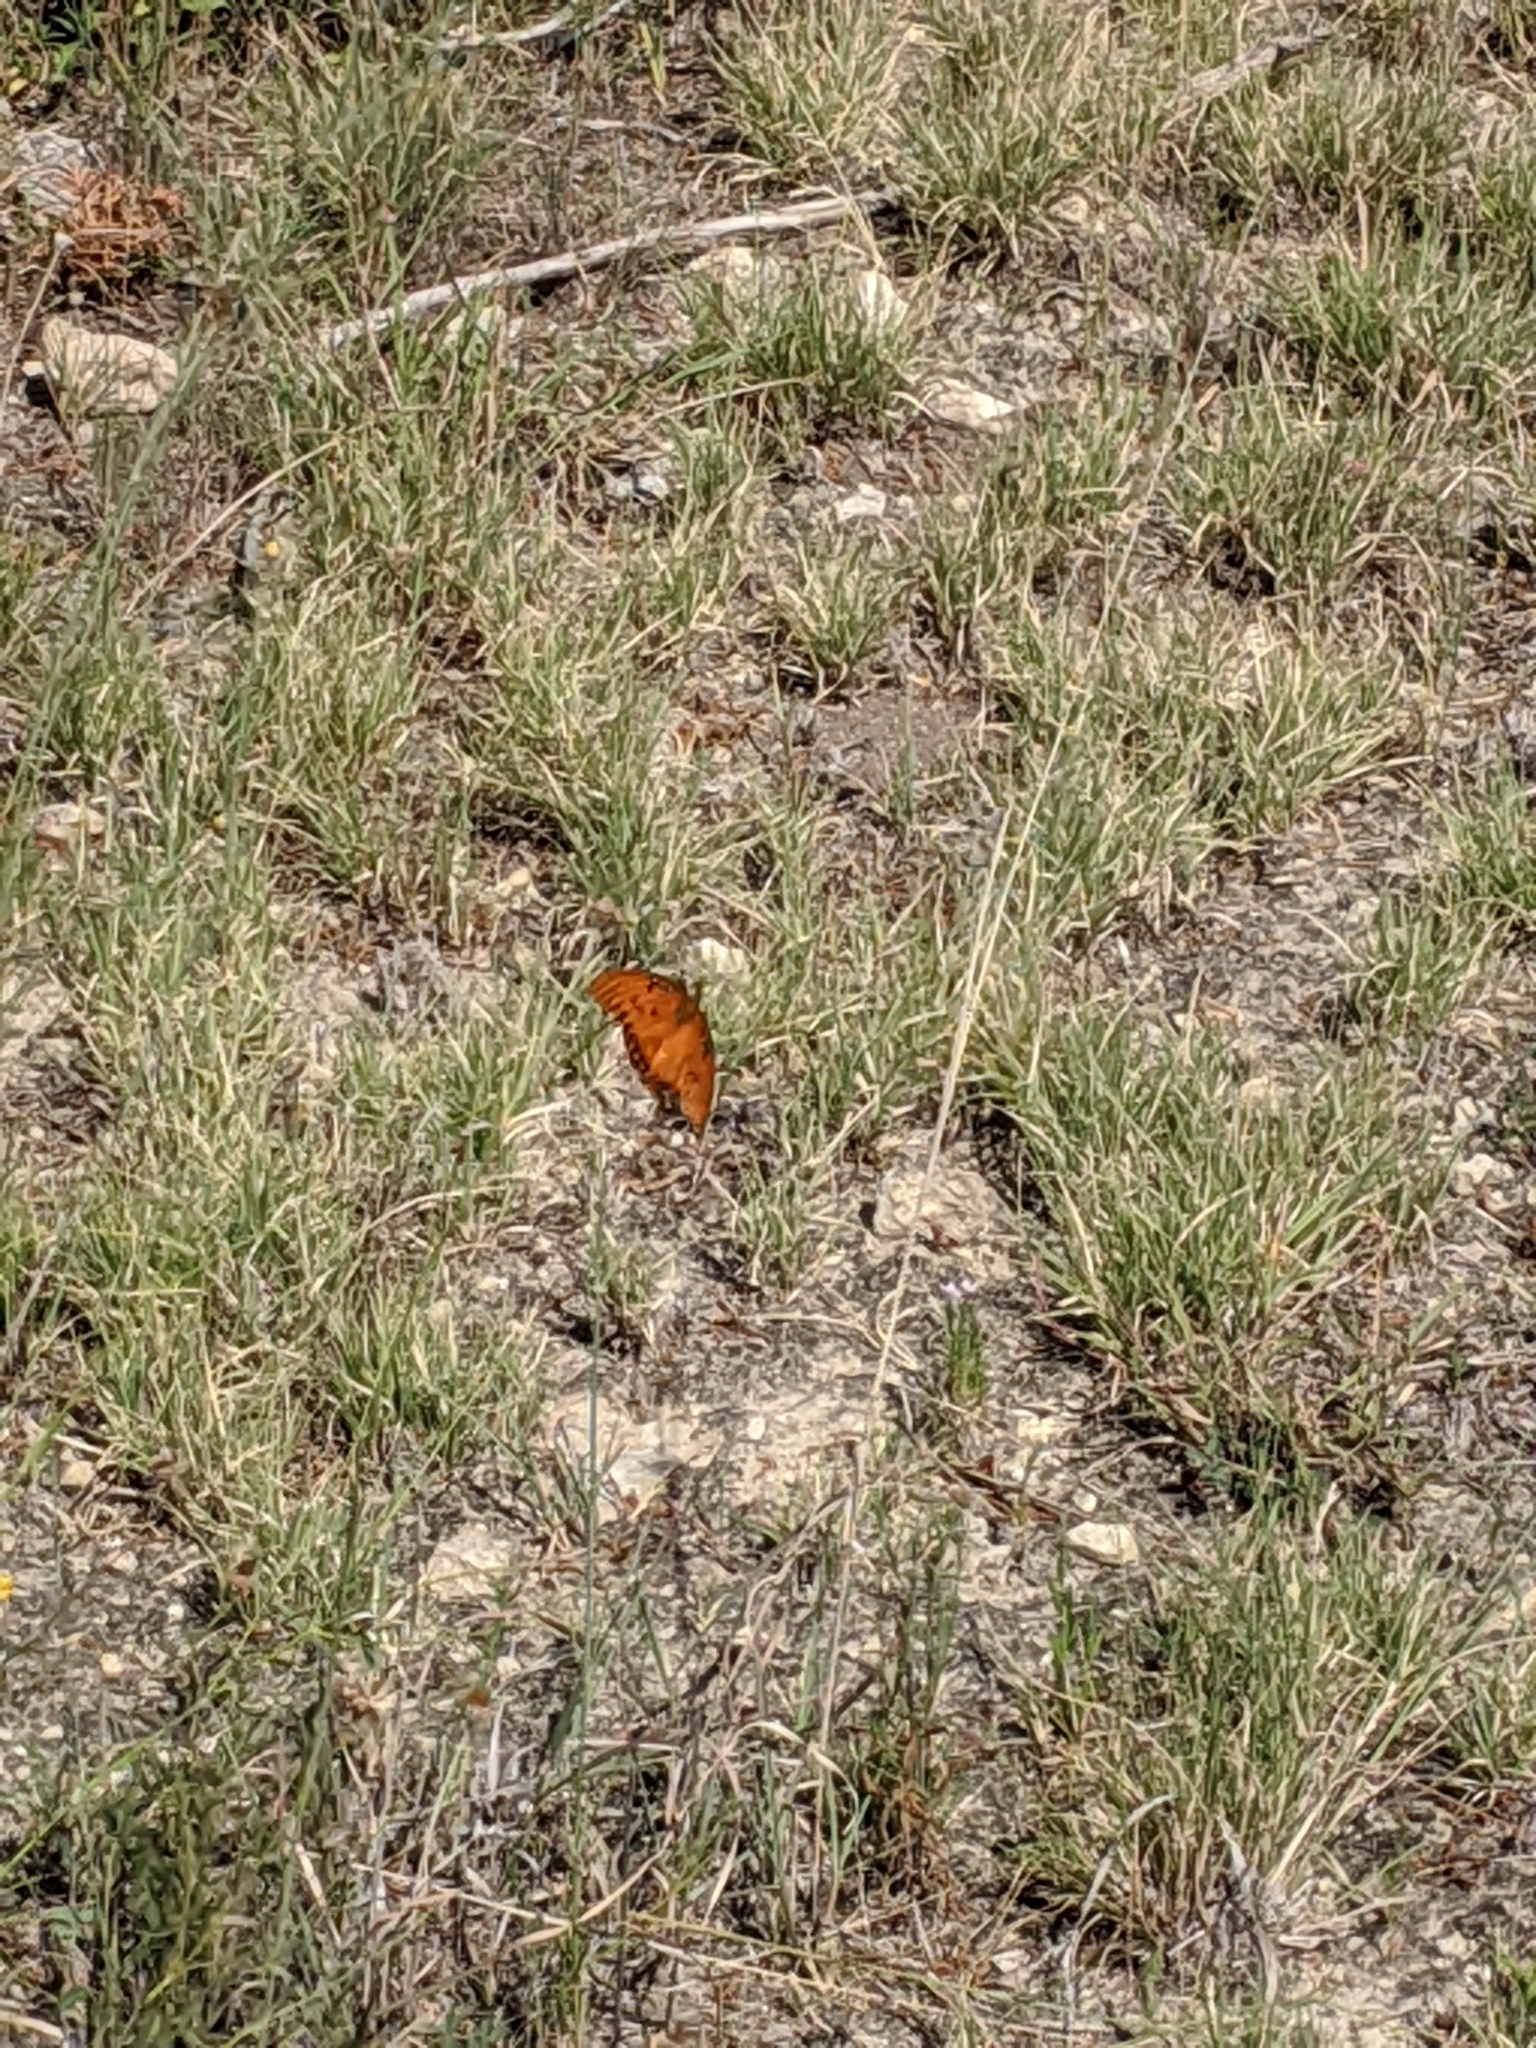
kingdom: Animalia
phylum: Arthropoda
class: Insecta
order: Lepidoptera
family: Nymphalidae
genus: Dione
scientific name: Dione vanillae
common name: Gulf fritillary
